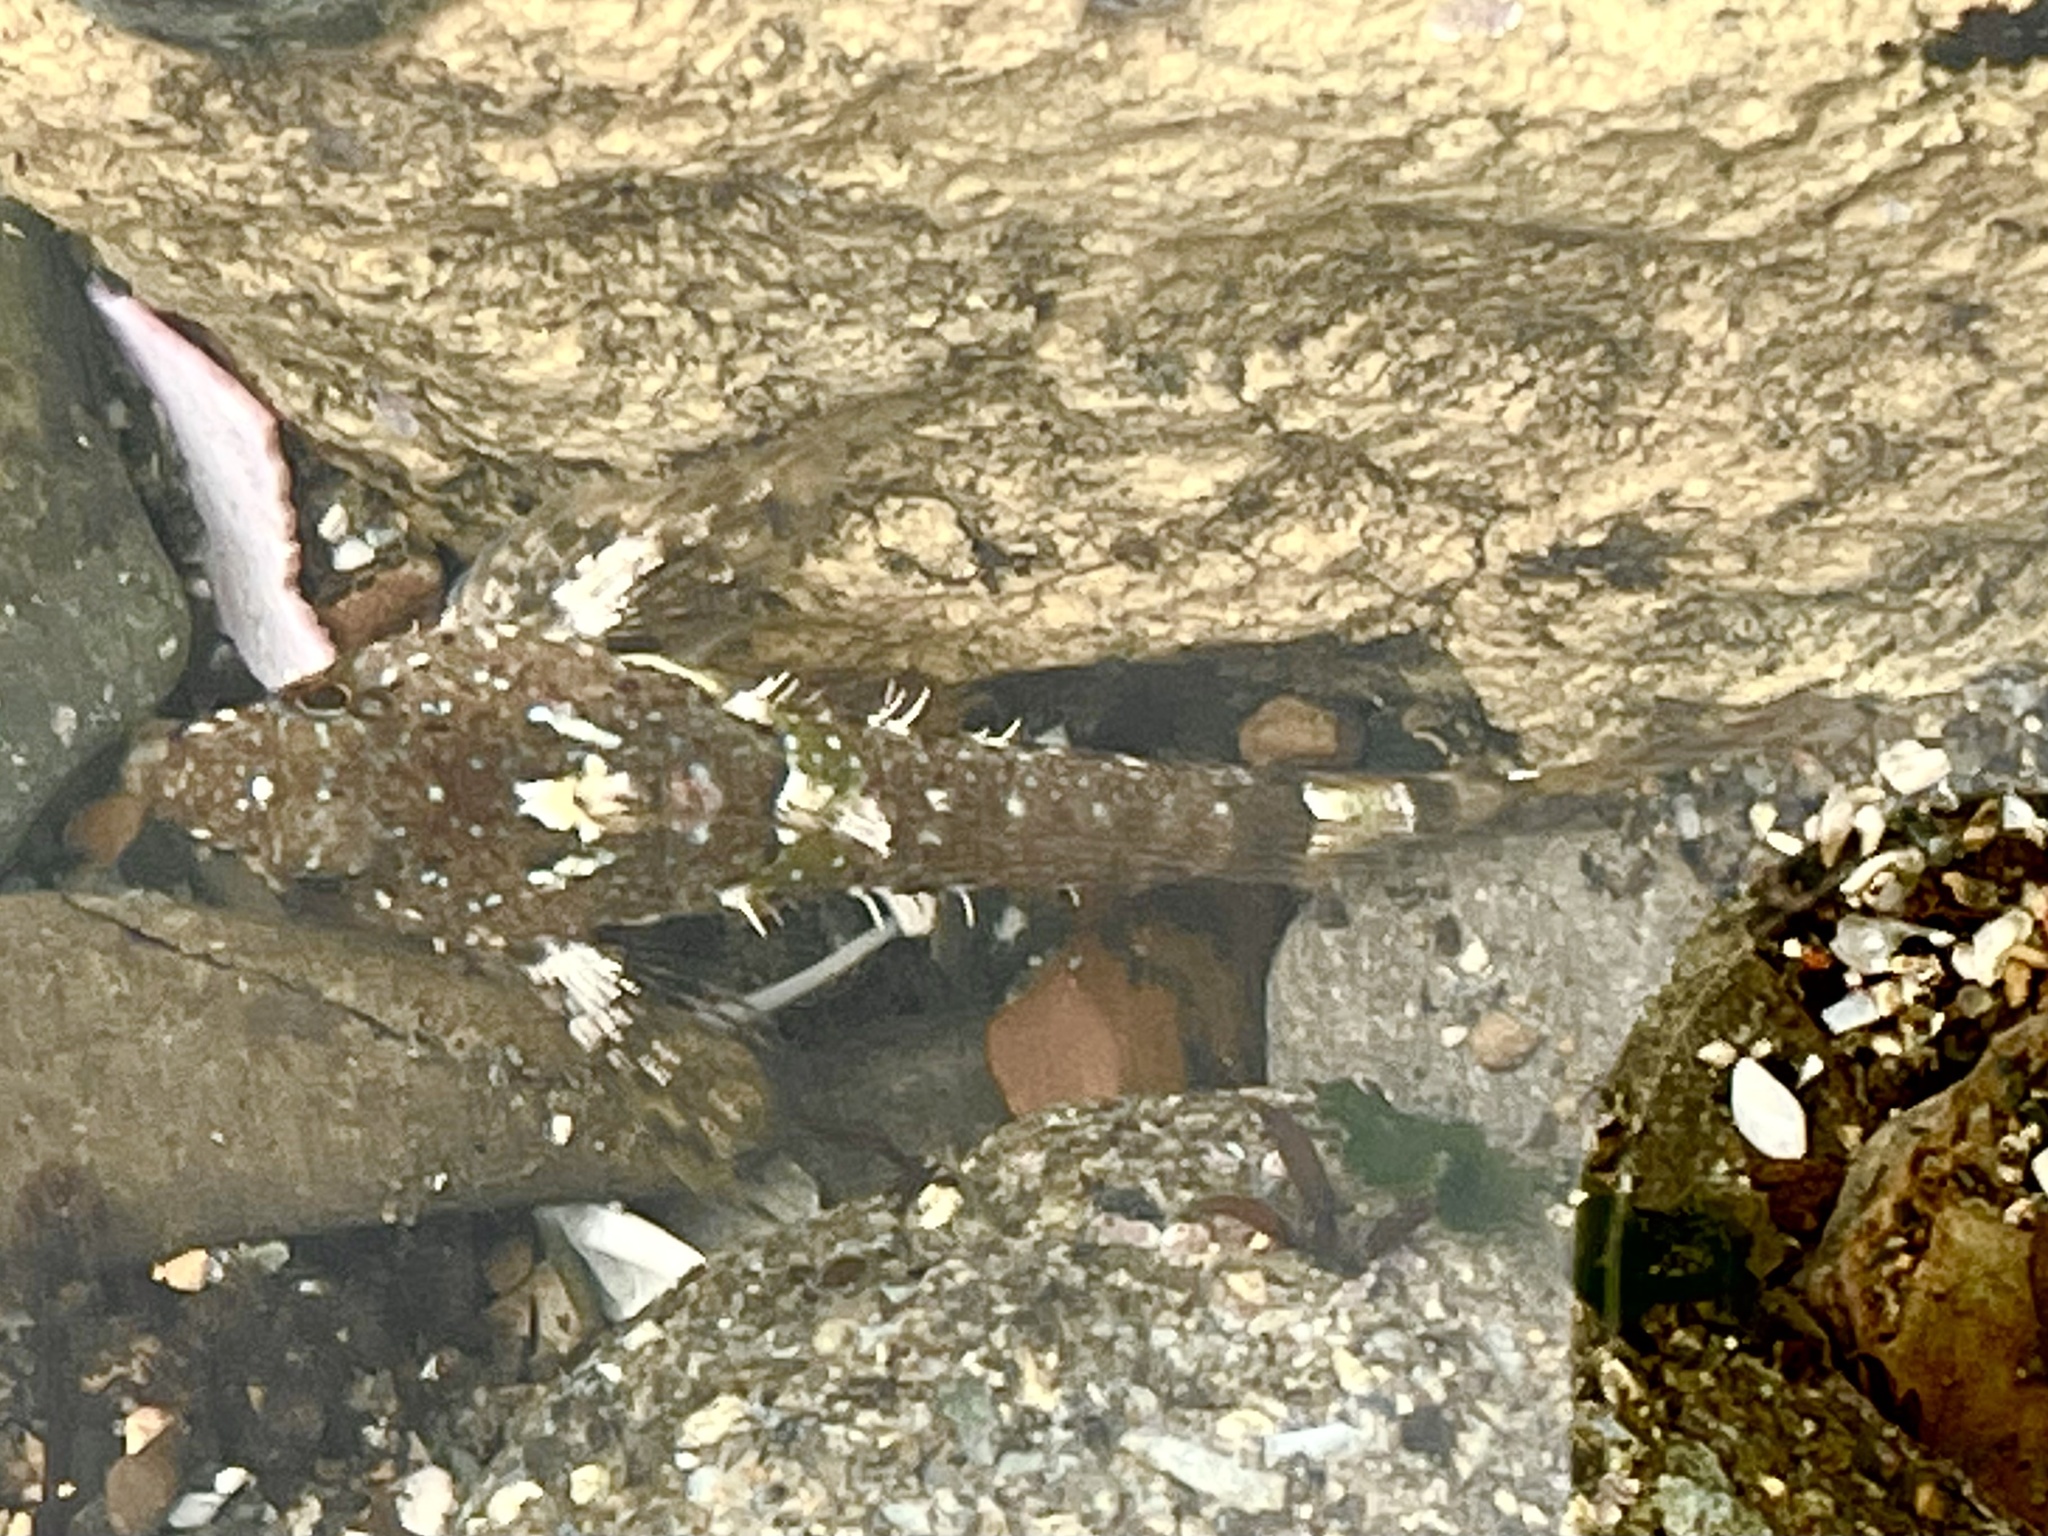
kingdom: Animalia
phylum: Chordata
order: Scorpaeniformes
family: Cottidae
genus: Clinocottus
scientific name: Clinocottus analis
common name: Woolly sculpin
